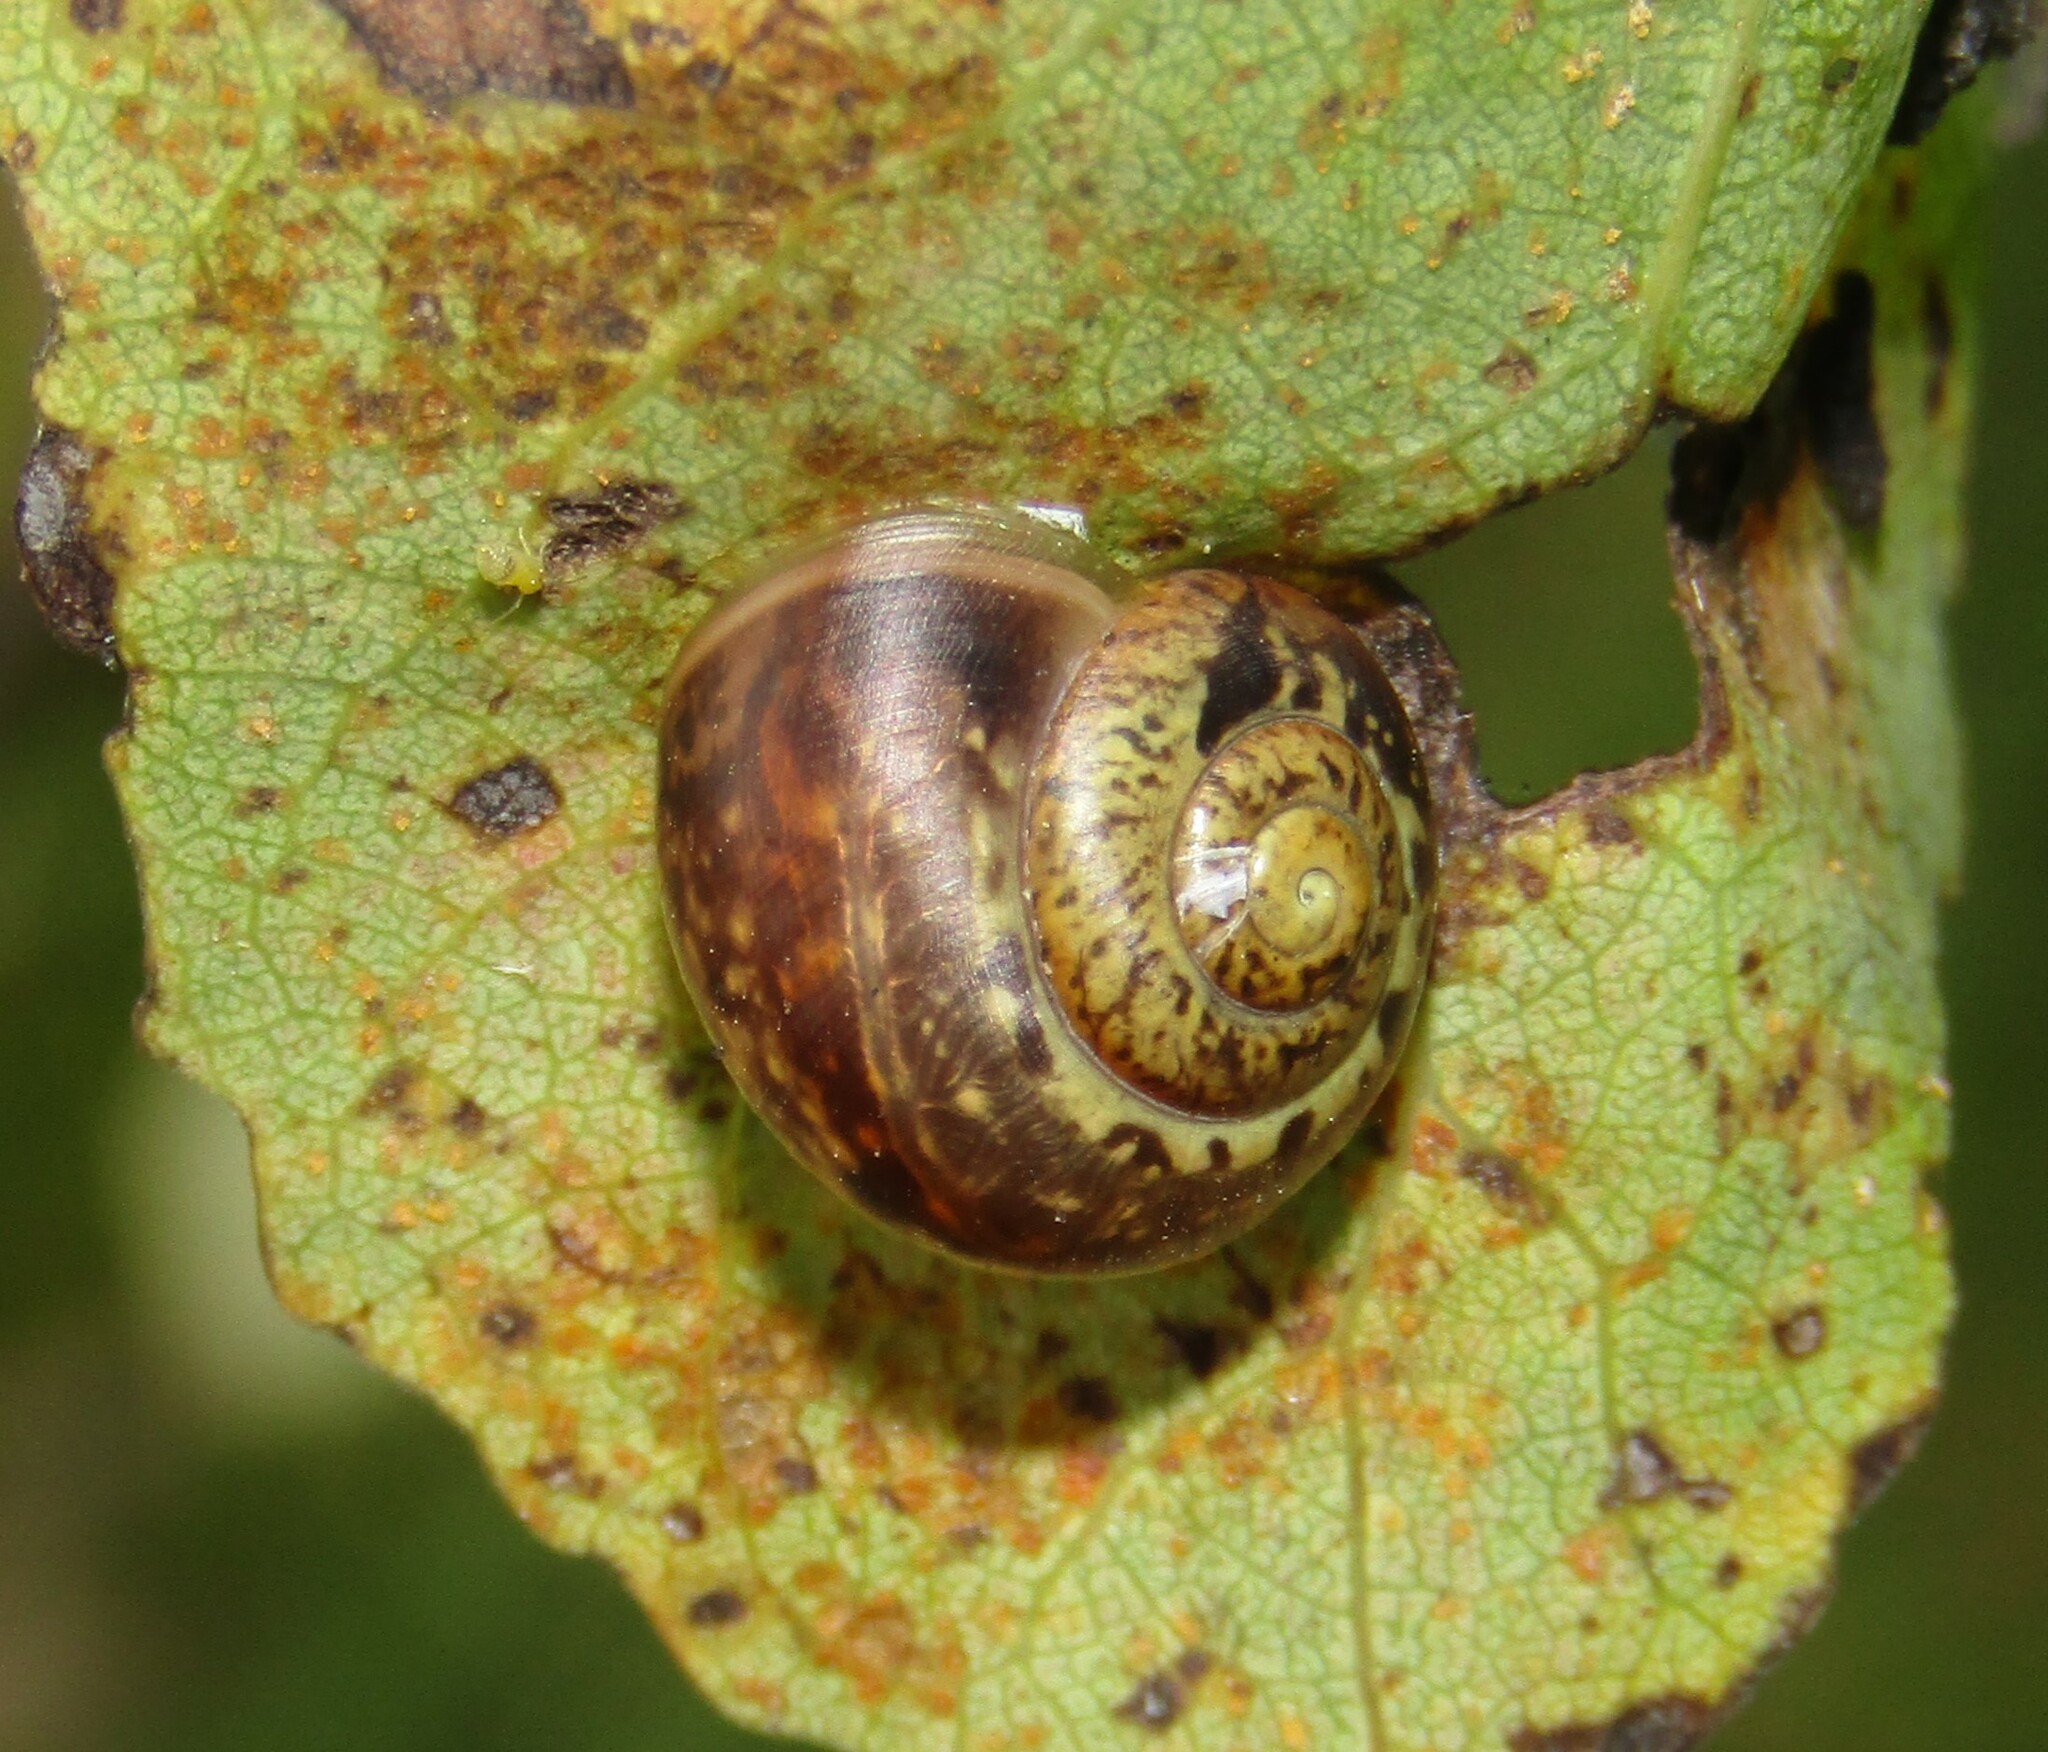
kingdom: Animalia
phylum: Mollusca
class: Gastropoda
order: Stylommatophora
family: Camaenidae
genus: Fruticicola
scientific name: Fruticicola fruticum
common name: Bush snail
